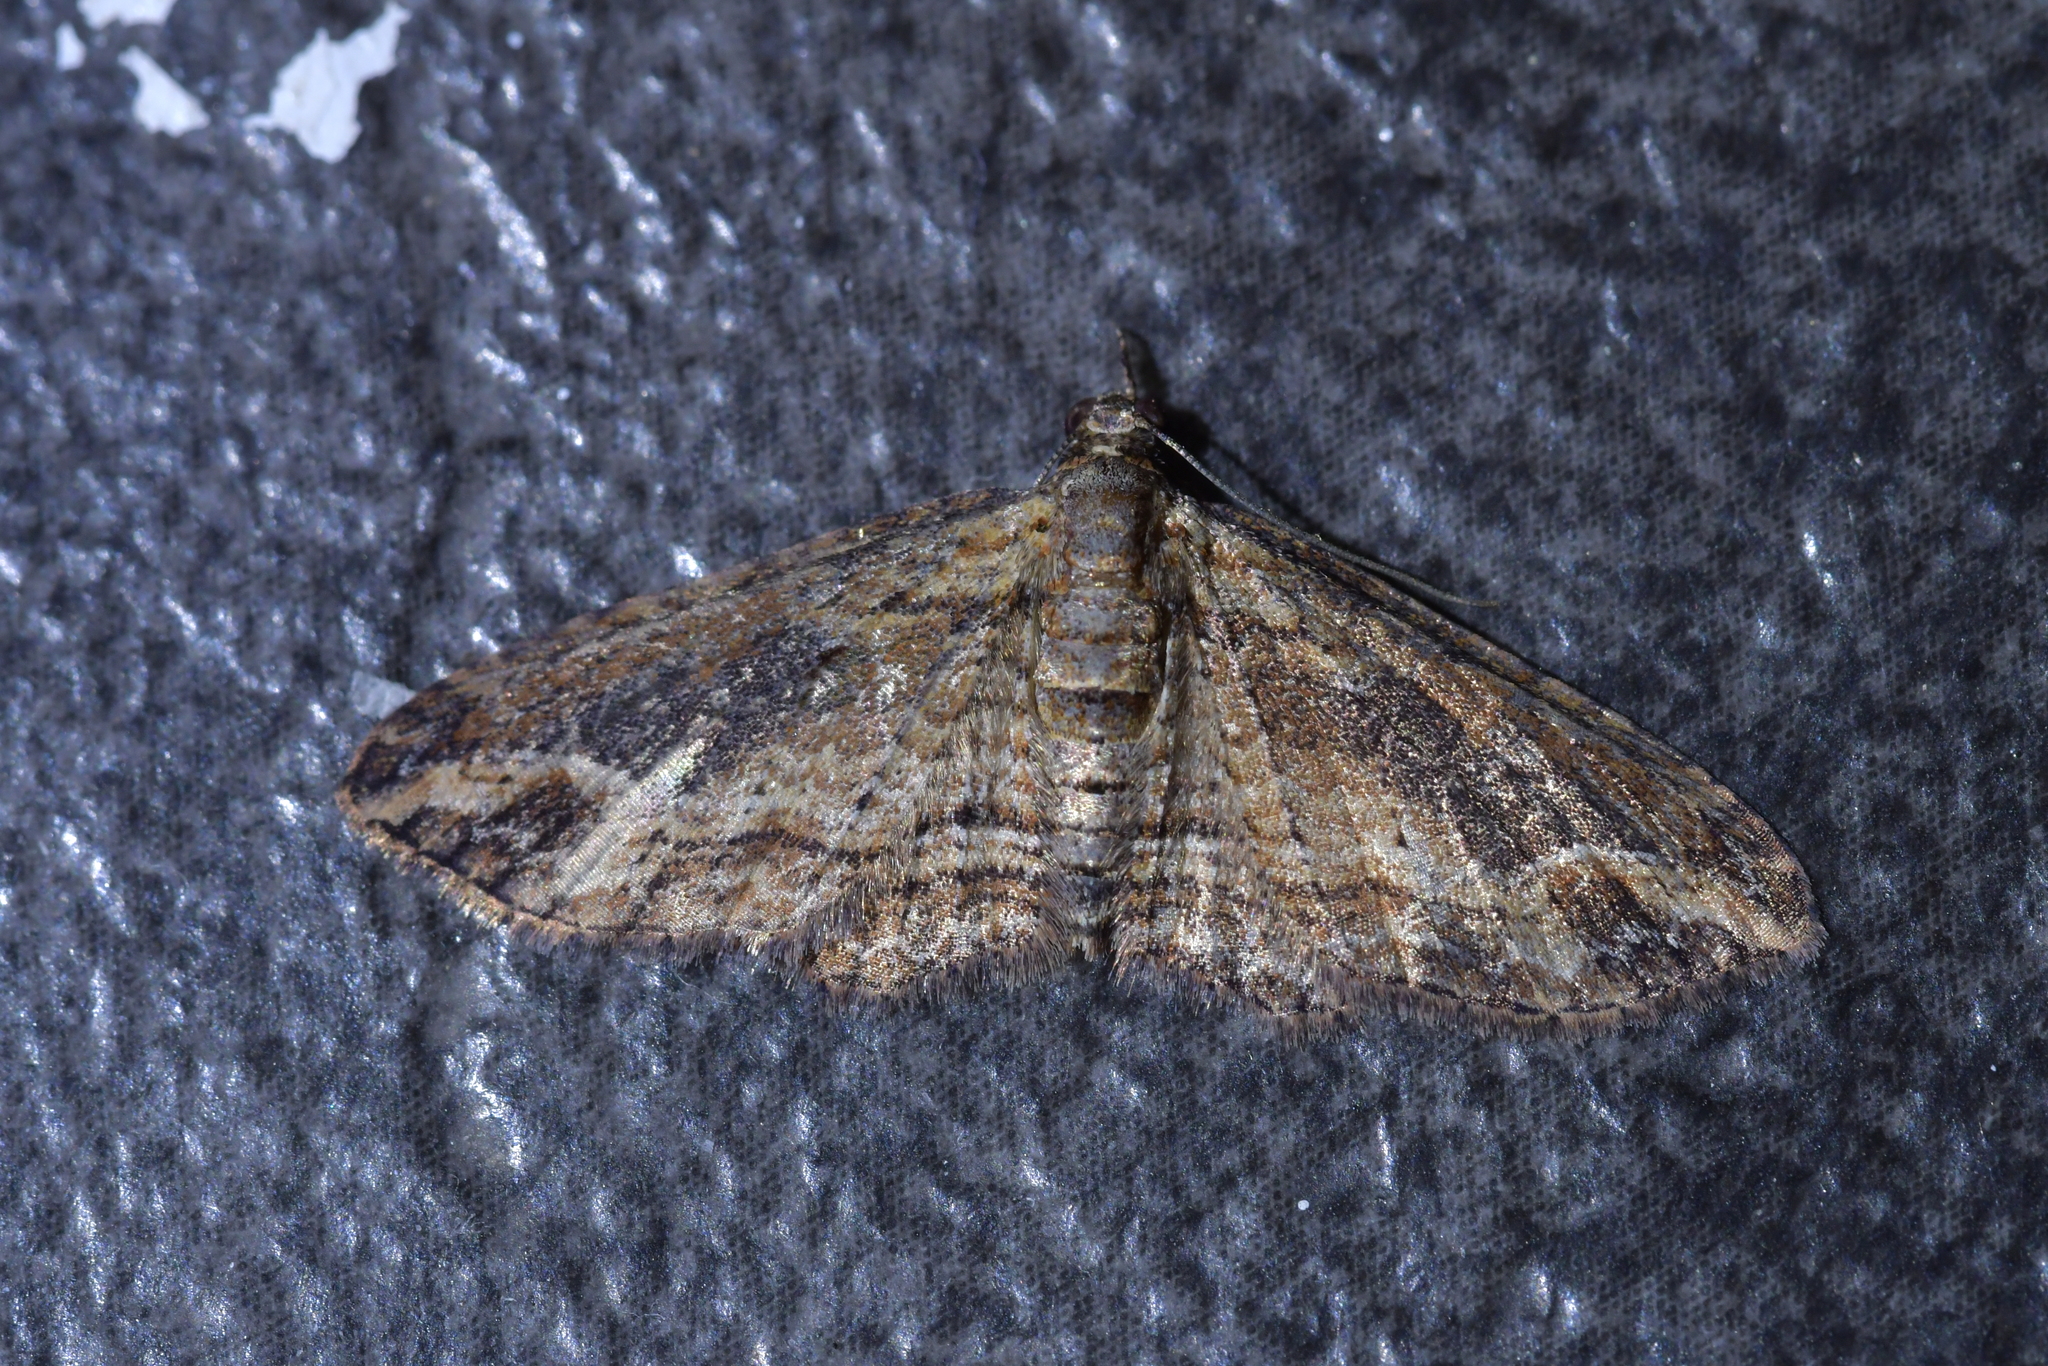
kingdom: Animalia
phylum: Arthropoda
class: Insecta
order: Lepidoptera
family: Geometridae
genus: Chloroclystis
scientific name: Chloroclystis filata
